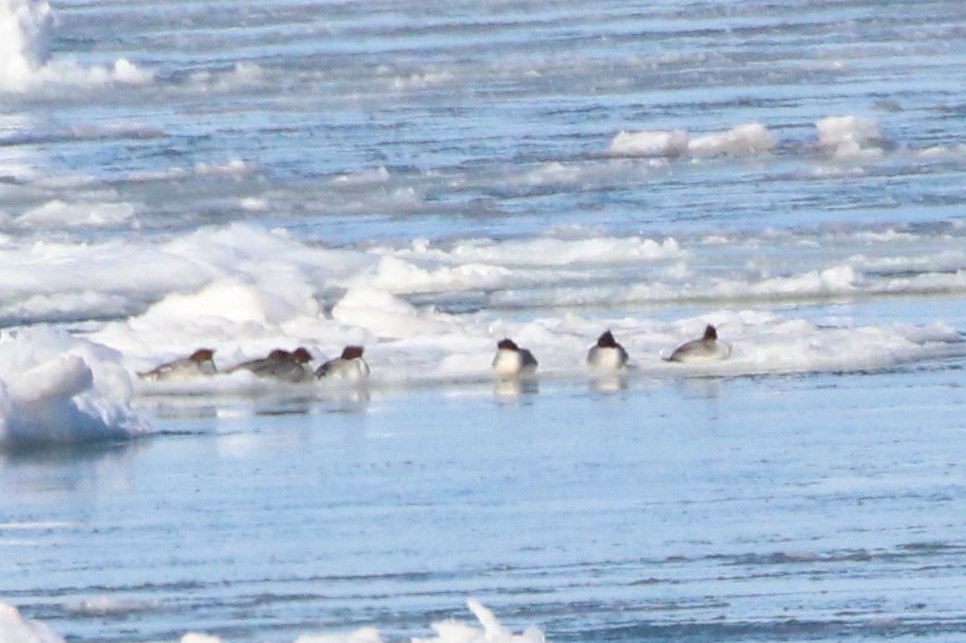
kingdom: Animalia
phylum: Chordata
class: Aves
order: Anseriformes
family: Anatidae
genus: Mergus
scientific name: Mergus merganser
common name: Common merganser
